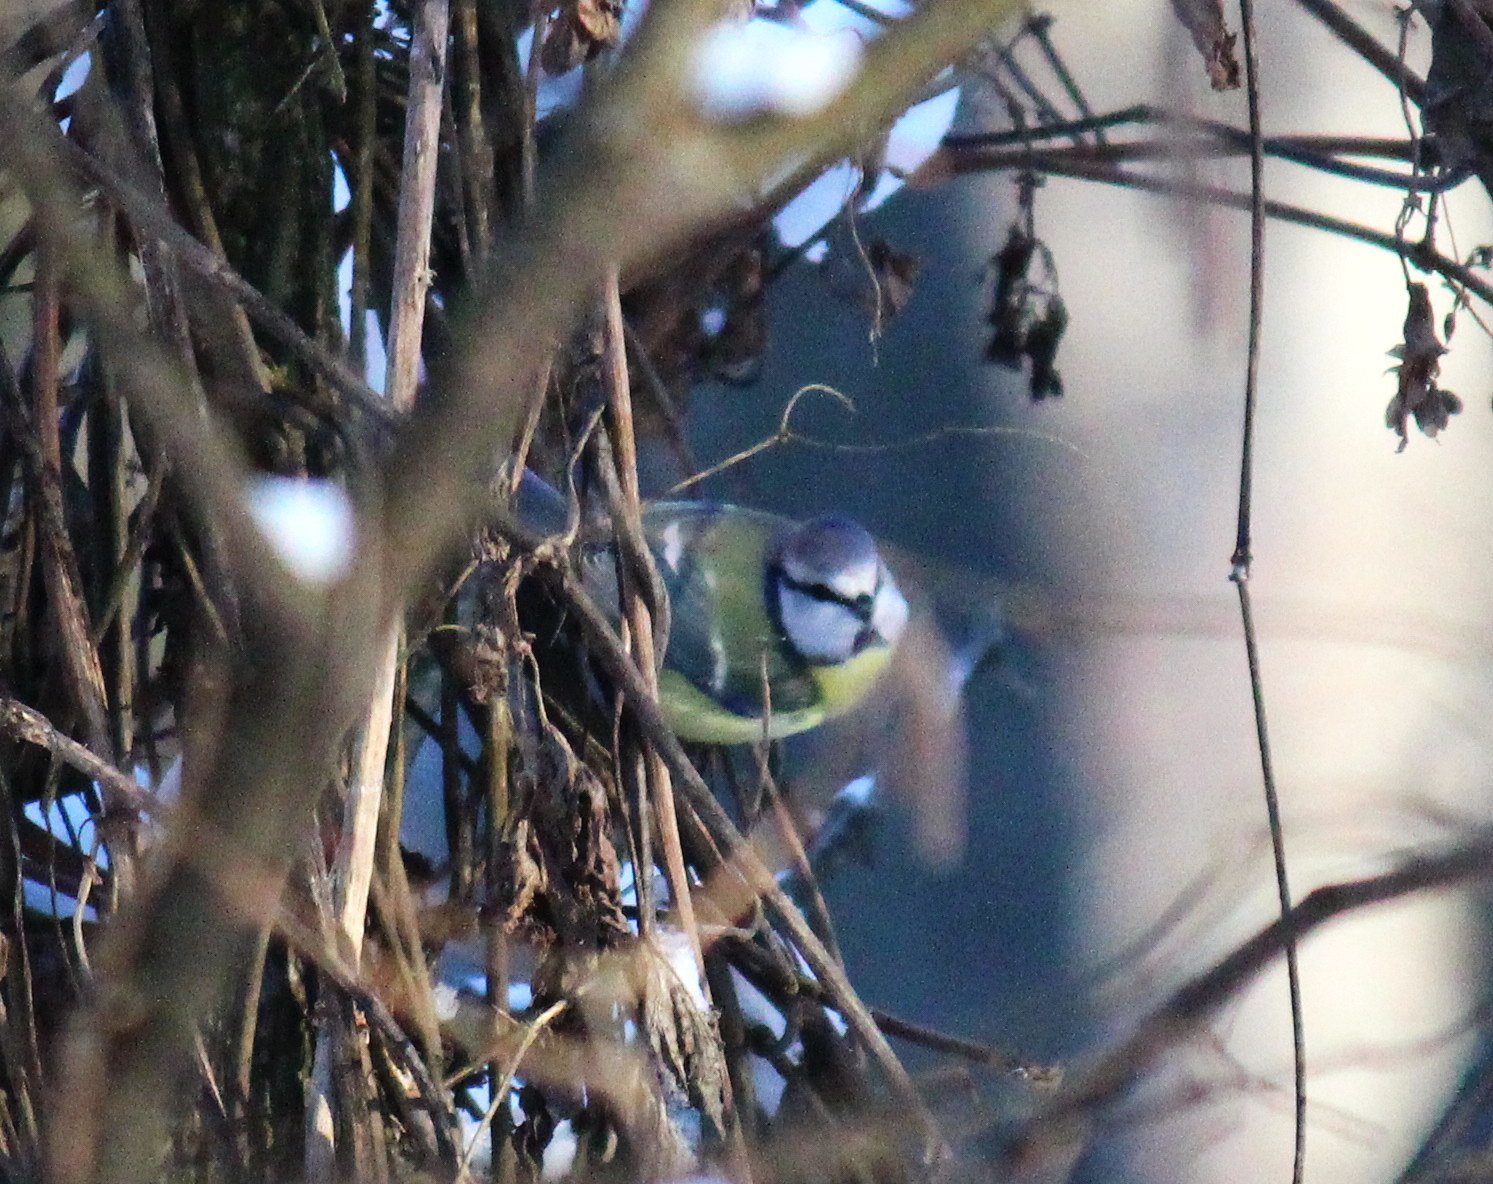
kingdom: Animalia
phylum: Chordata
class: Aves
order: Passeriformes
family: Paridae
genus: Cyanistes
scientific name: Cyanistes caeruleus
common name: Eurasian blue tit
